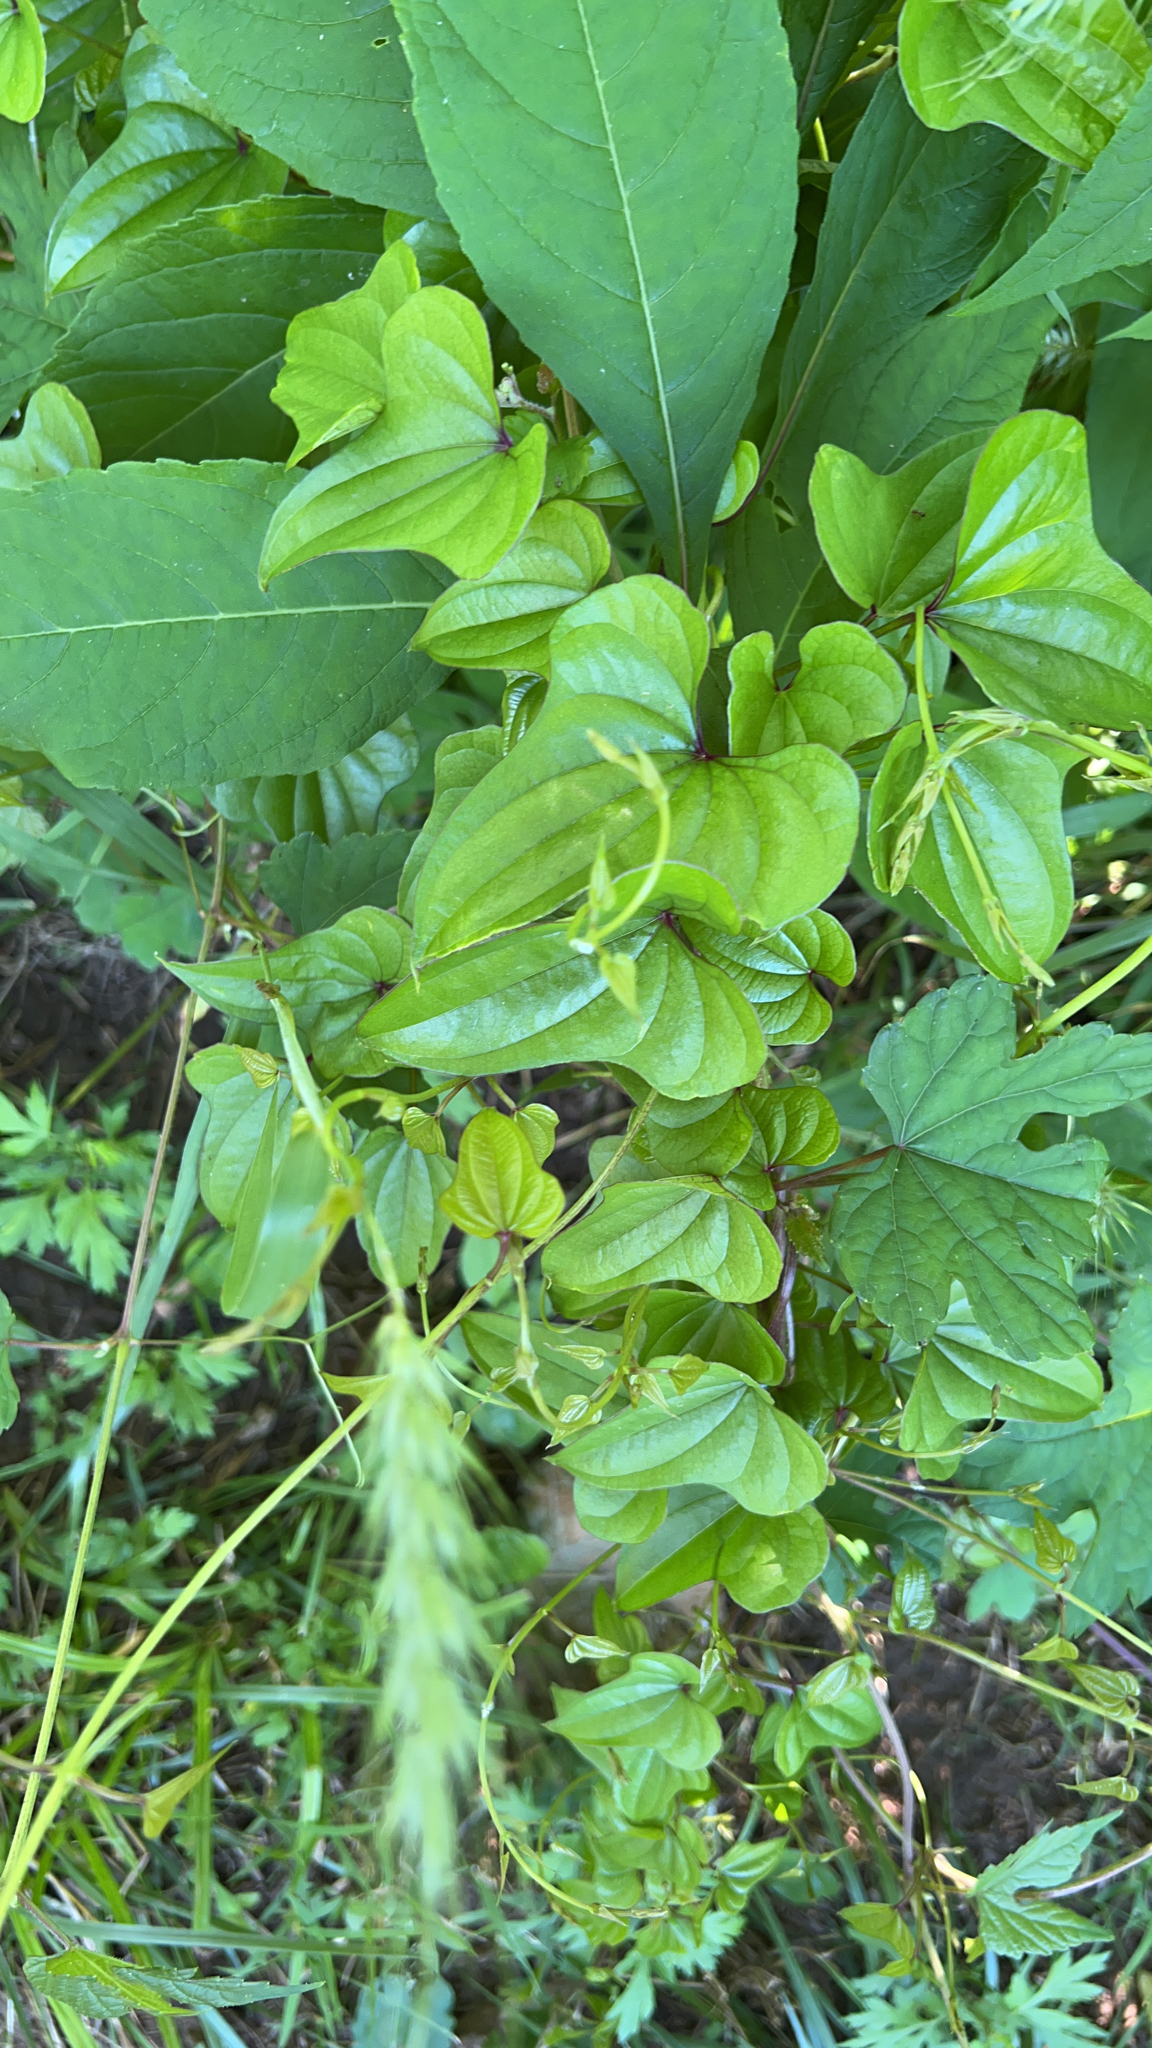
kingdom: Plantae
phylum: Tracheophyta
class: Liliopsida
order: Dioscoreales
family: Dioscoreaceae
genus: Dioscorea
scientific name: Dioscorea polystachya
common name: Chinese yam
